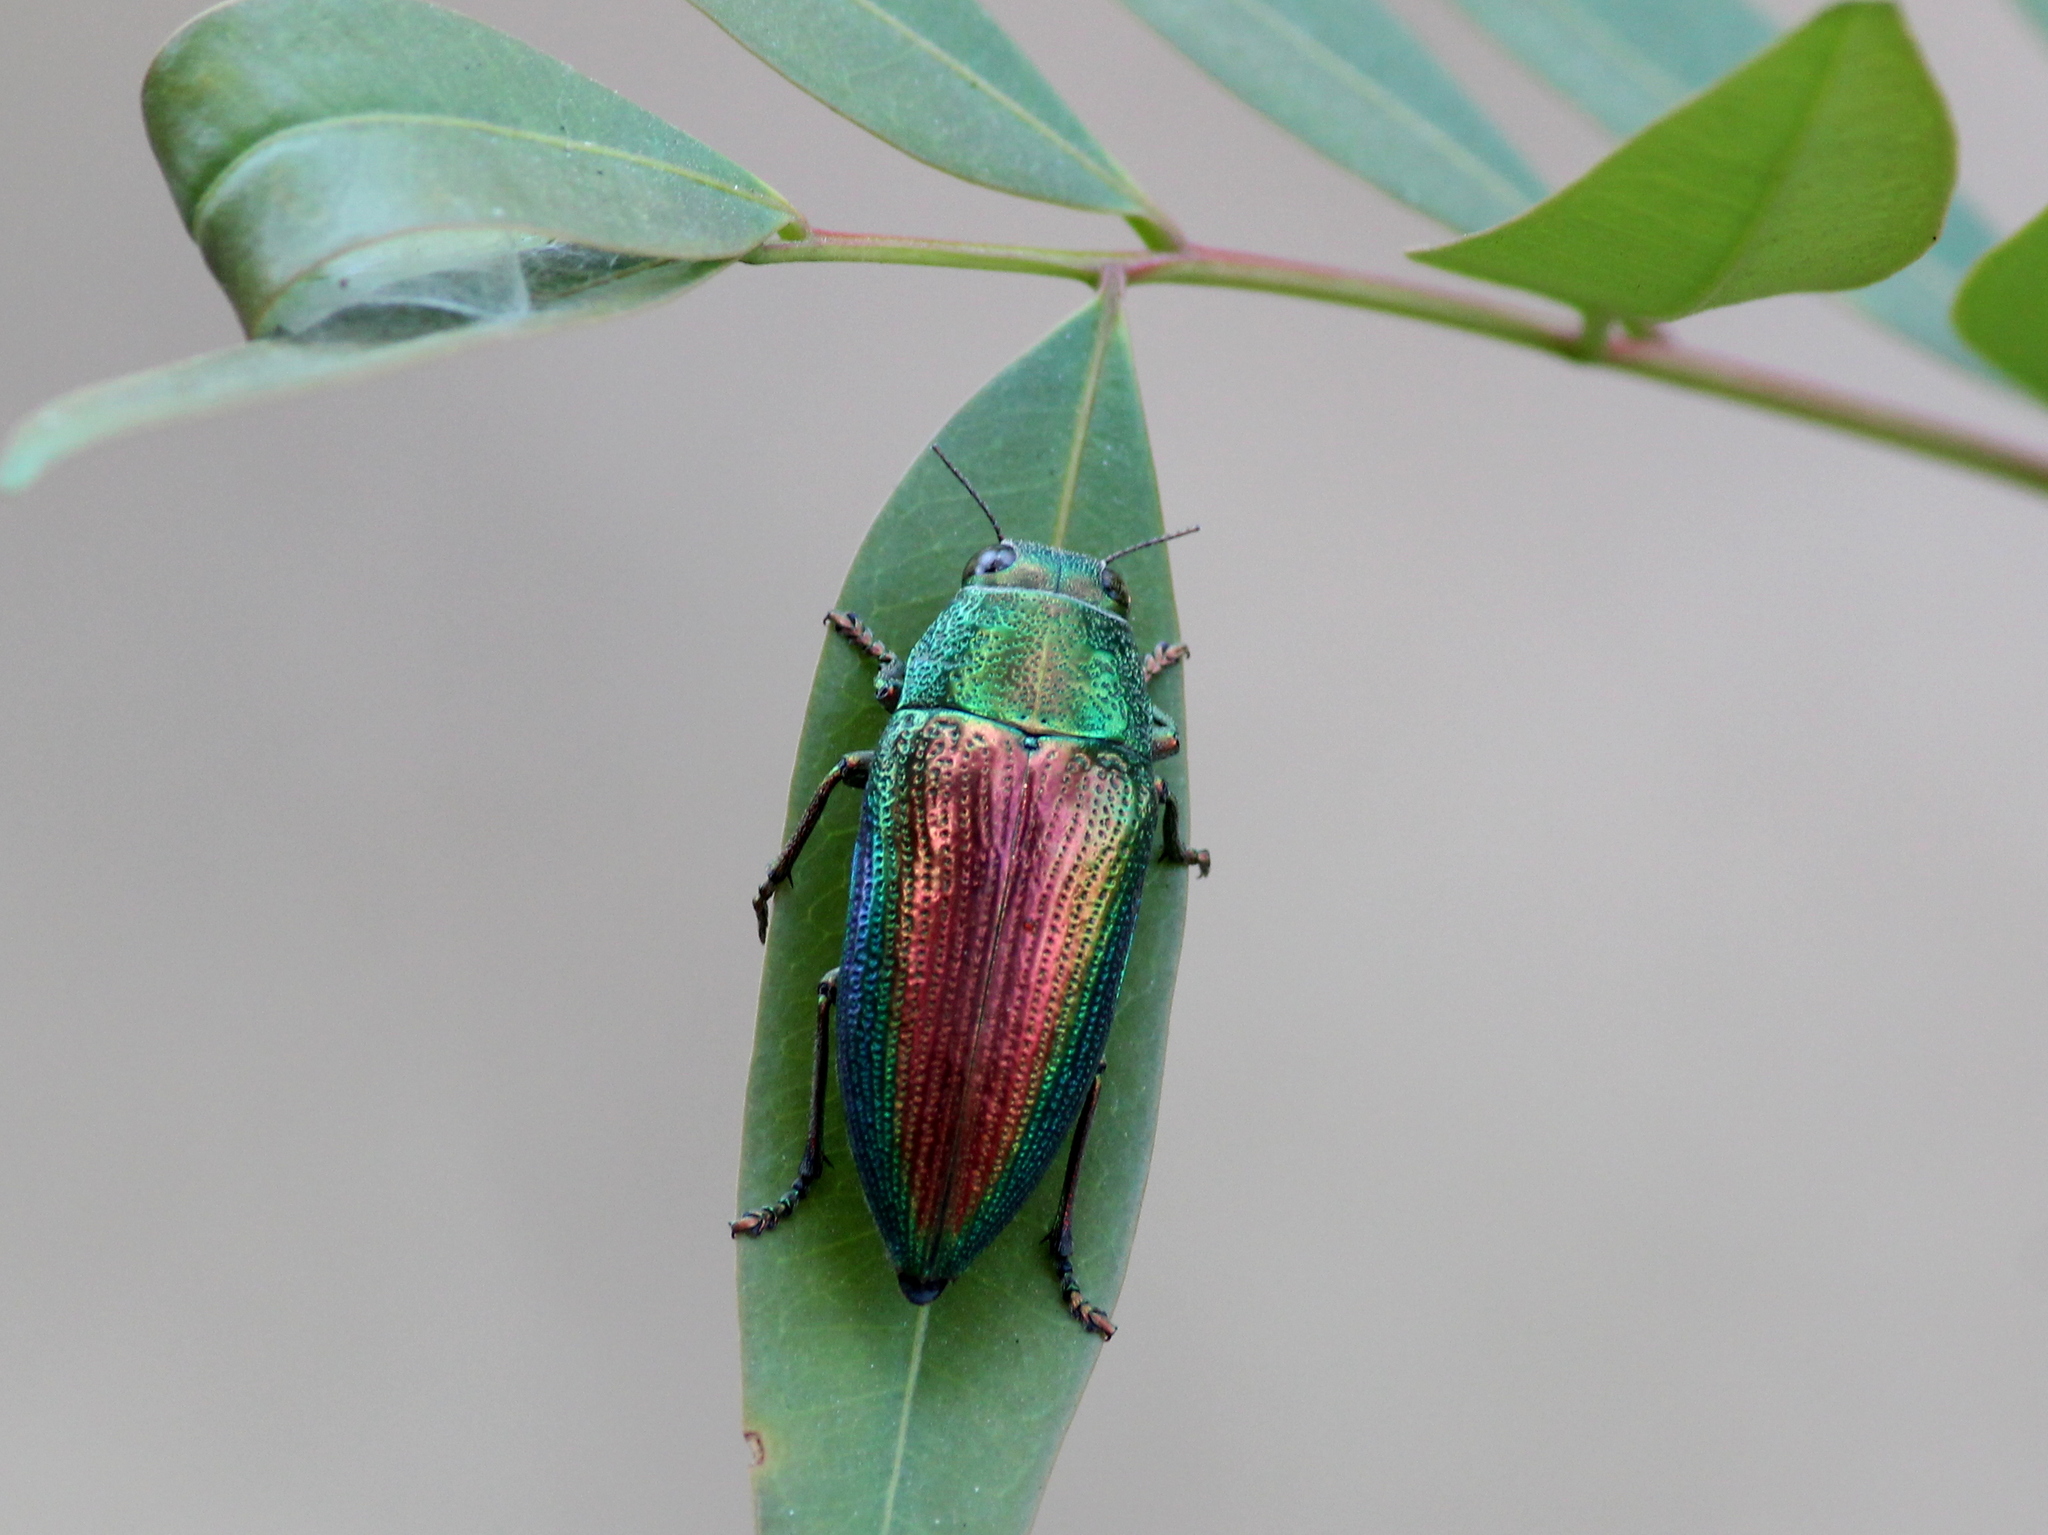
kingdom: Animalia
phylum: Arthropoda
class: Insecta
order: Coleoptera
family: Buprestidae
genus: Lampetis
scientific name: Lampetis fastuosa
